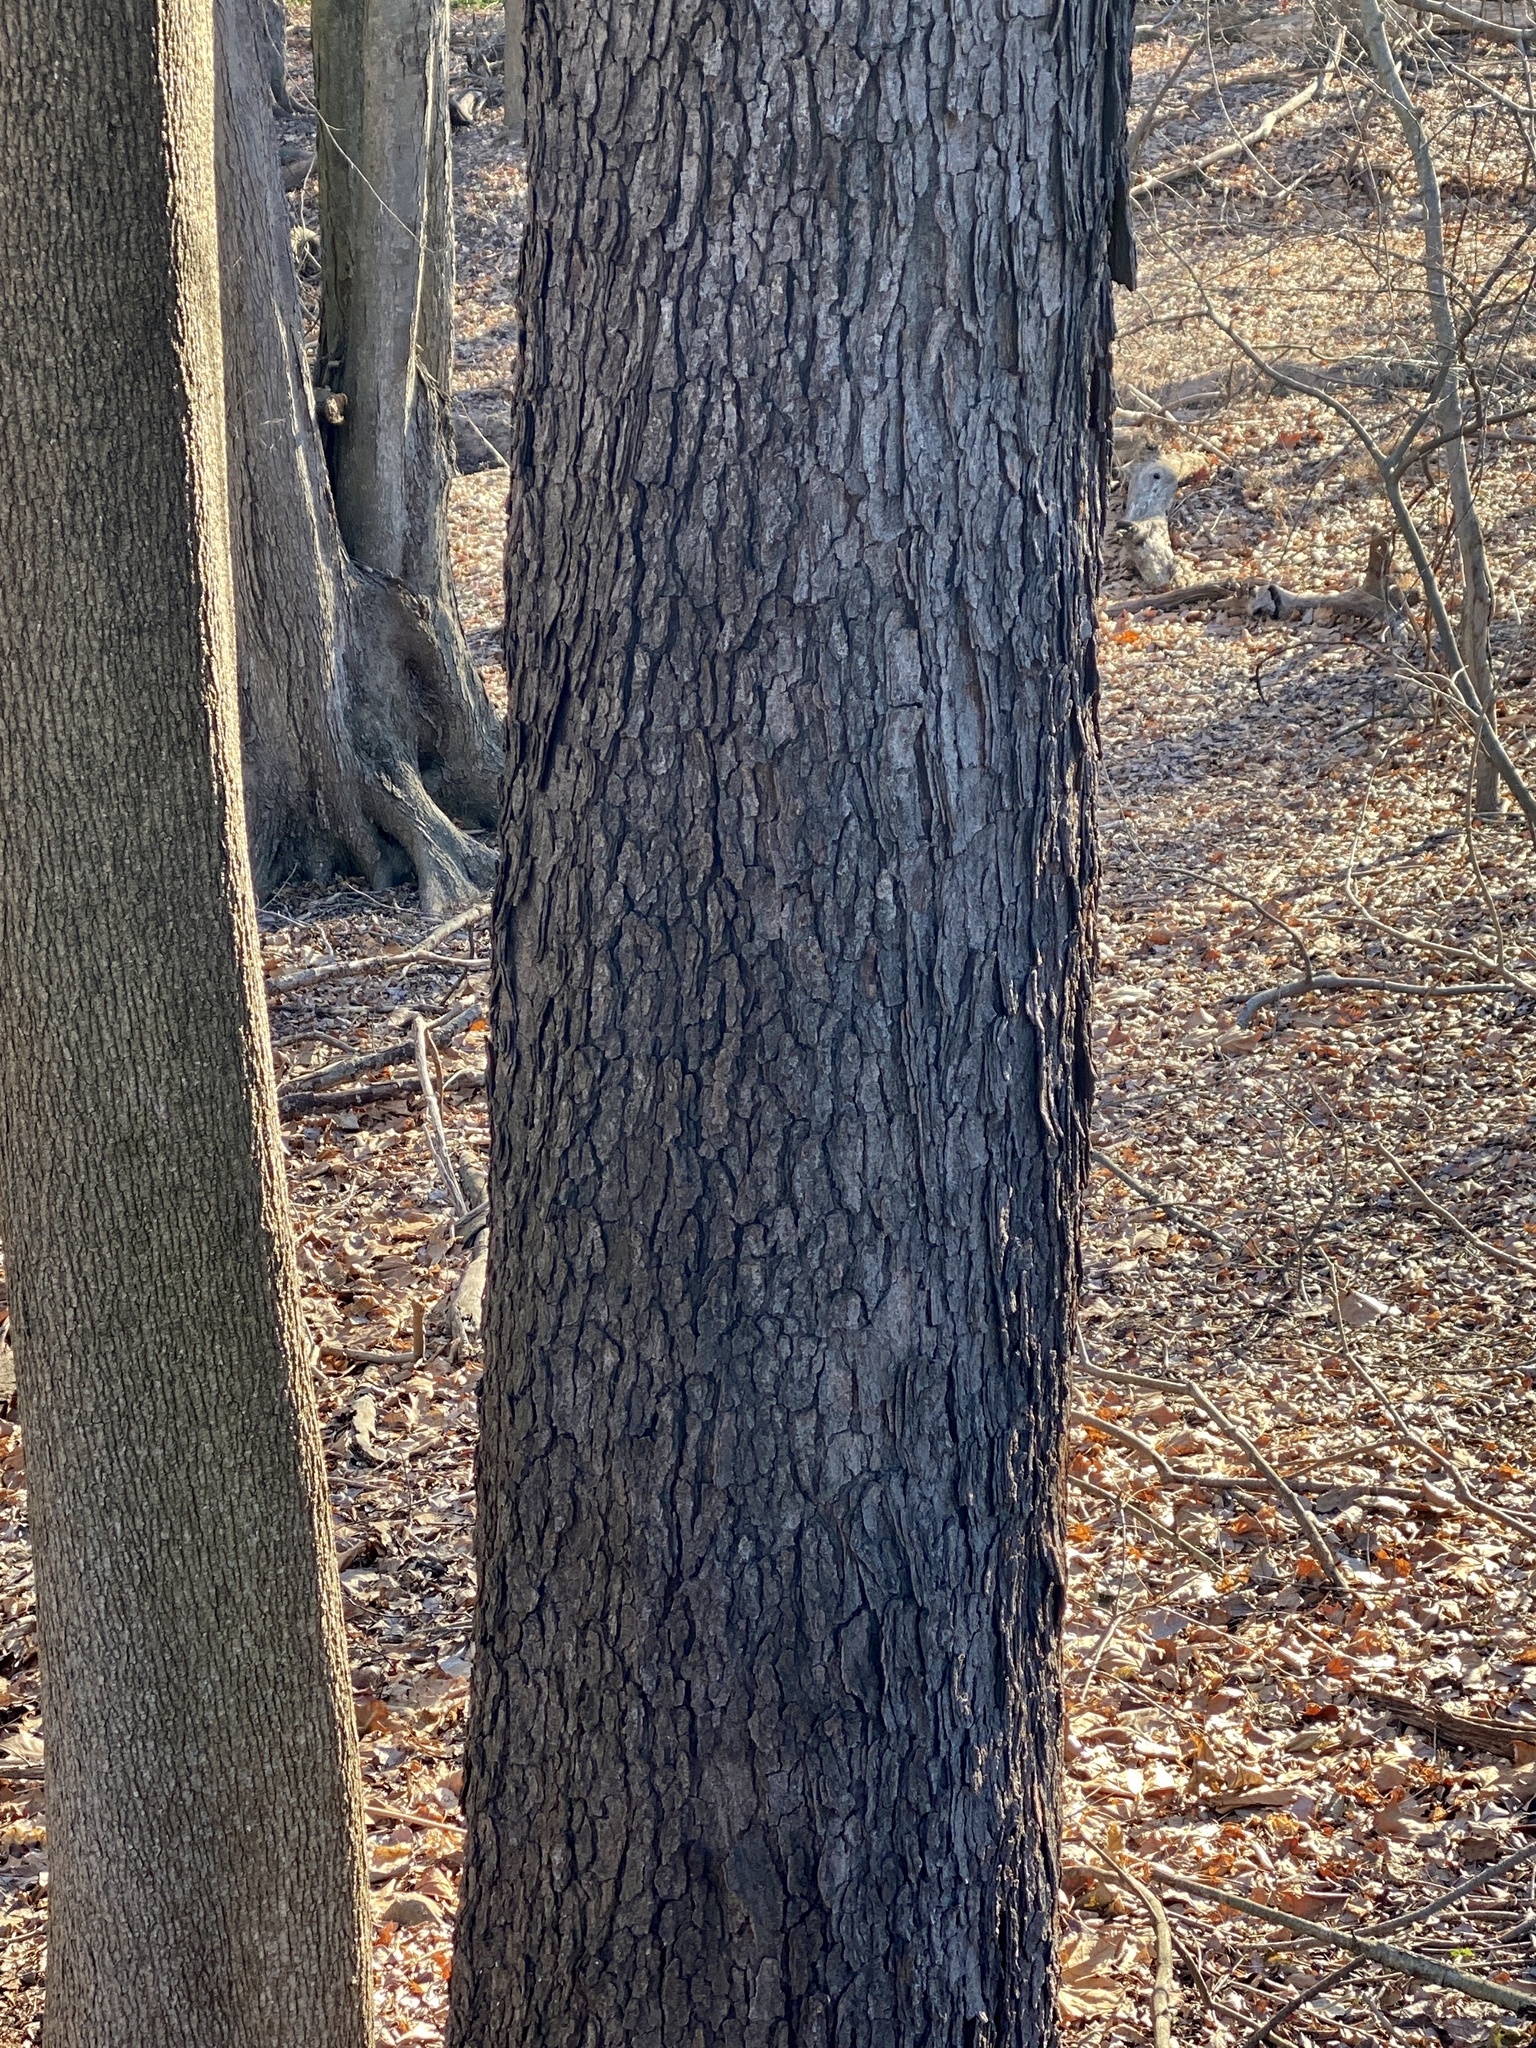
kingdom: Plantae
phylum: Tracheophyta
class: Magnoliopsida
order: Rosales
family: Rosaceae
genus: Prunus
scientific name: Prunus serotina
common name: Black cherry
